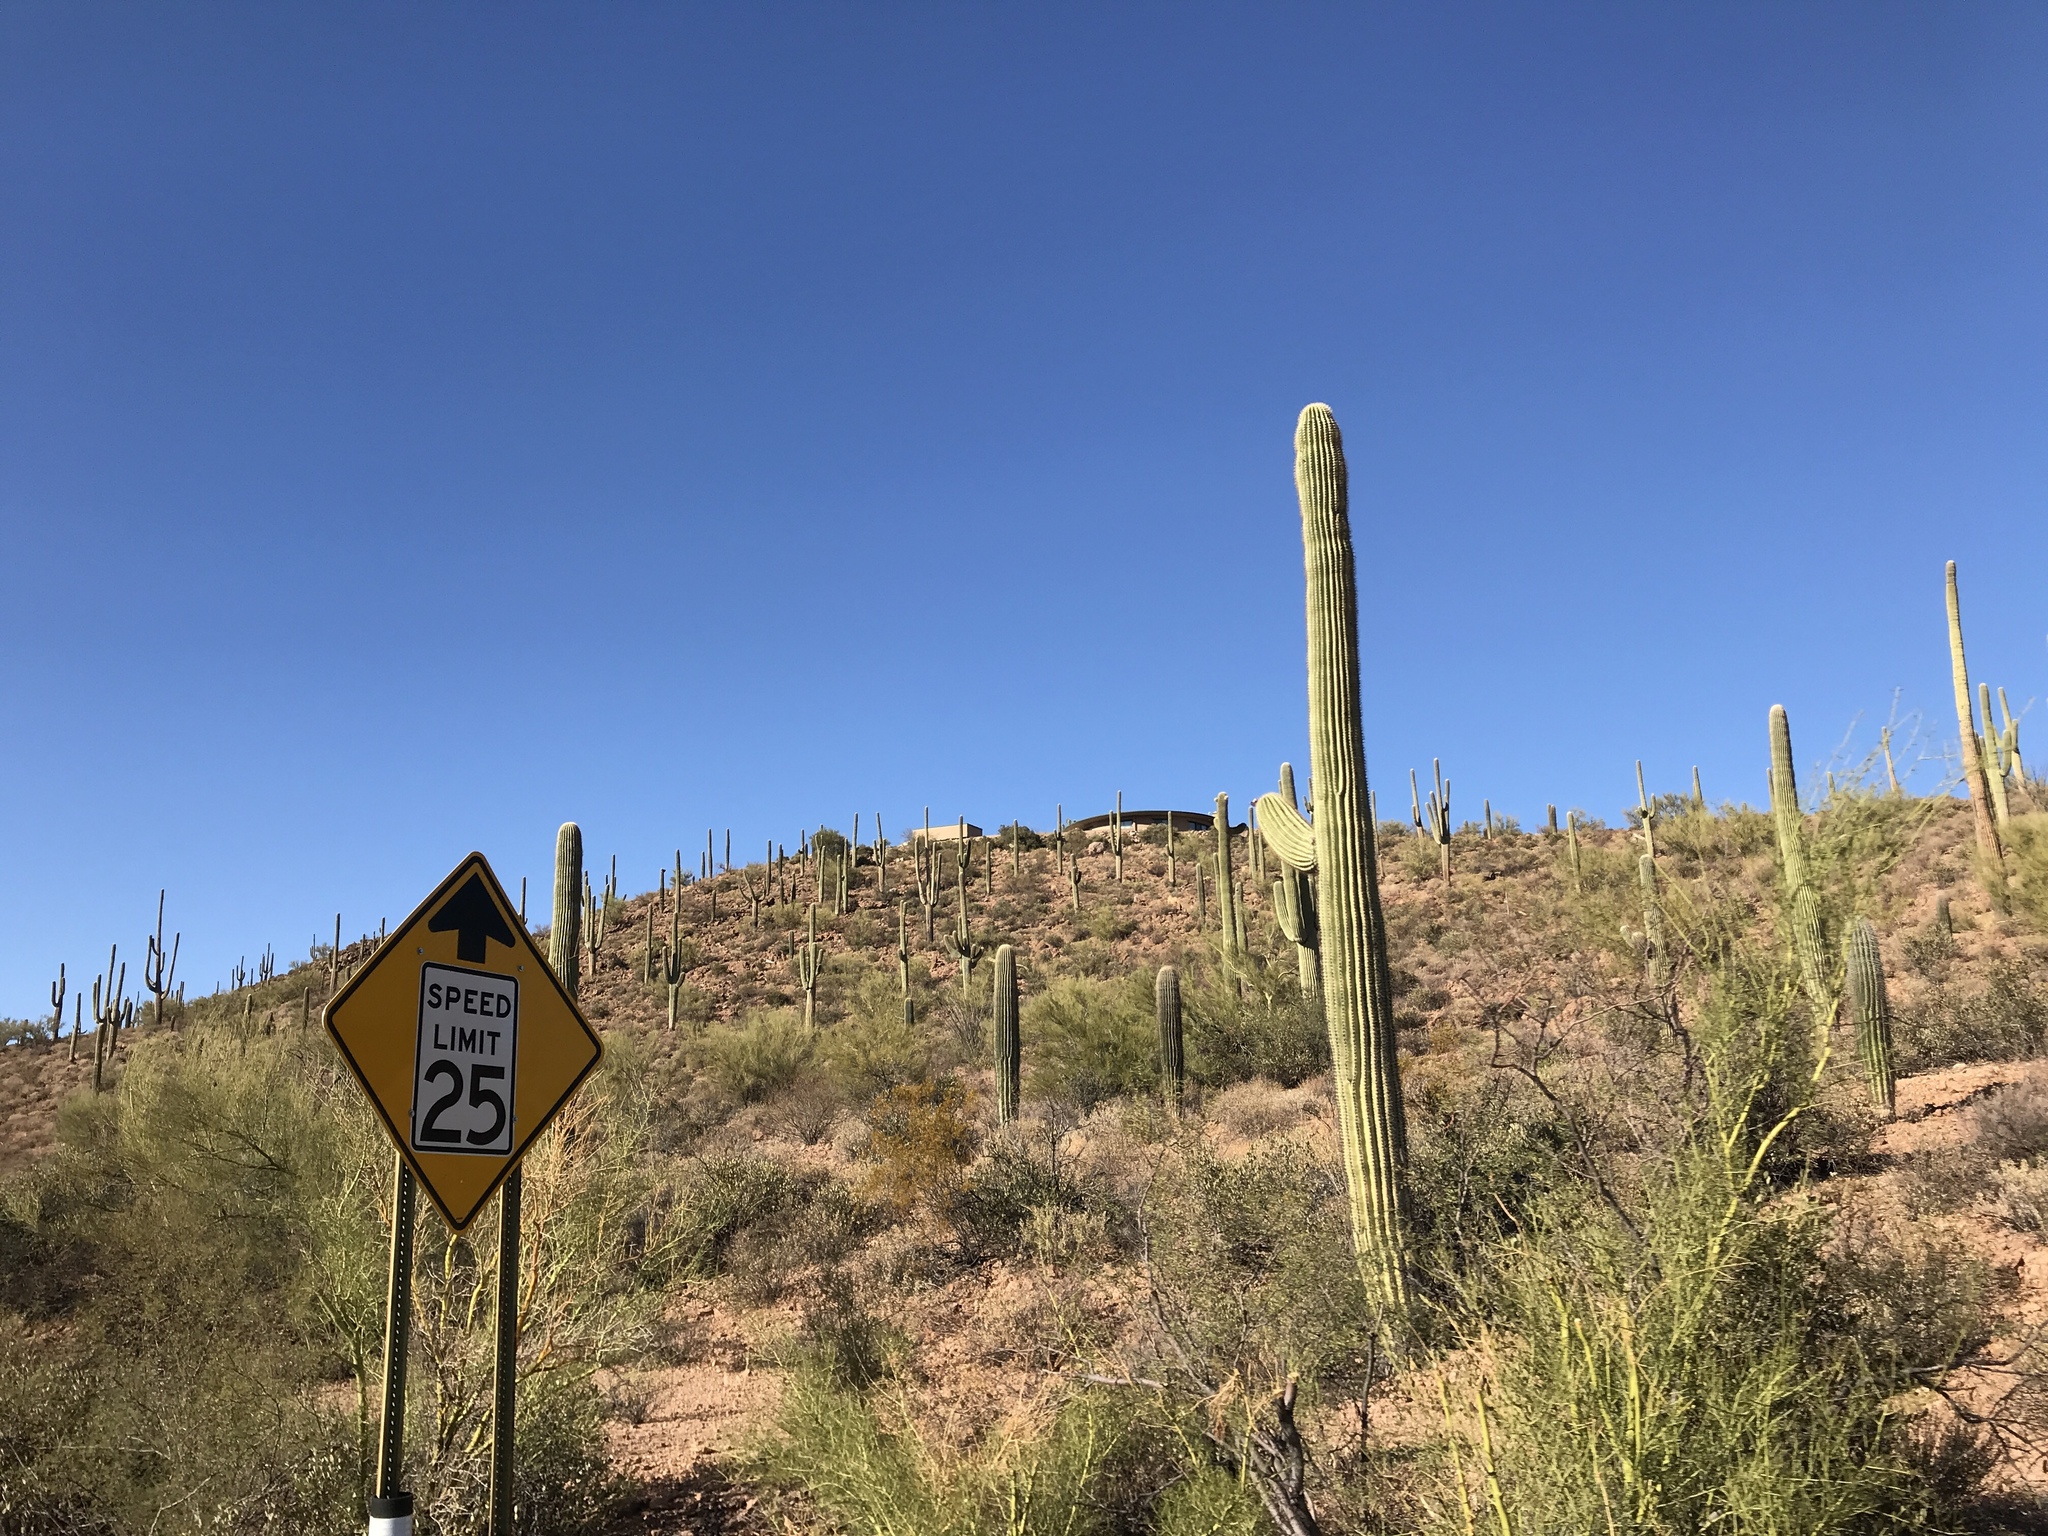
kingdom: Plantae
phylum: Tracheophyta
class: Magnoliopsida
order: Caryophyllales
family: Cactaceae
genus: Carnegiea
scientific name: Carnegiea gigantea
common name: Saguaro
